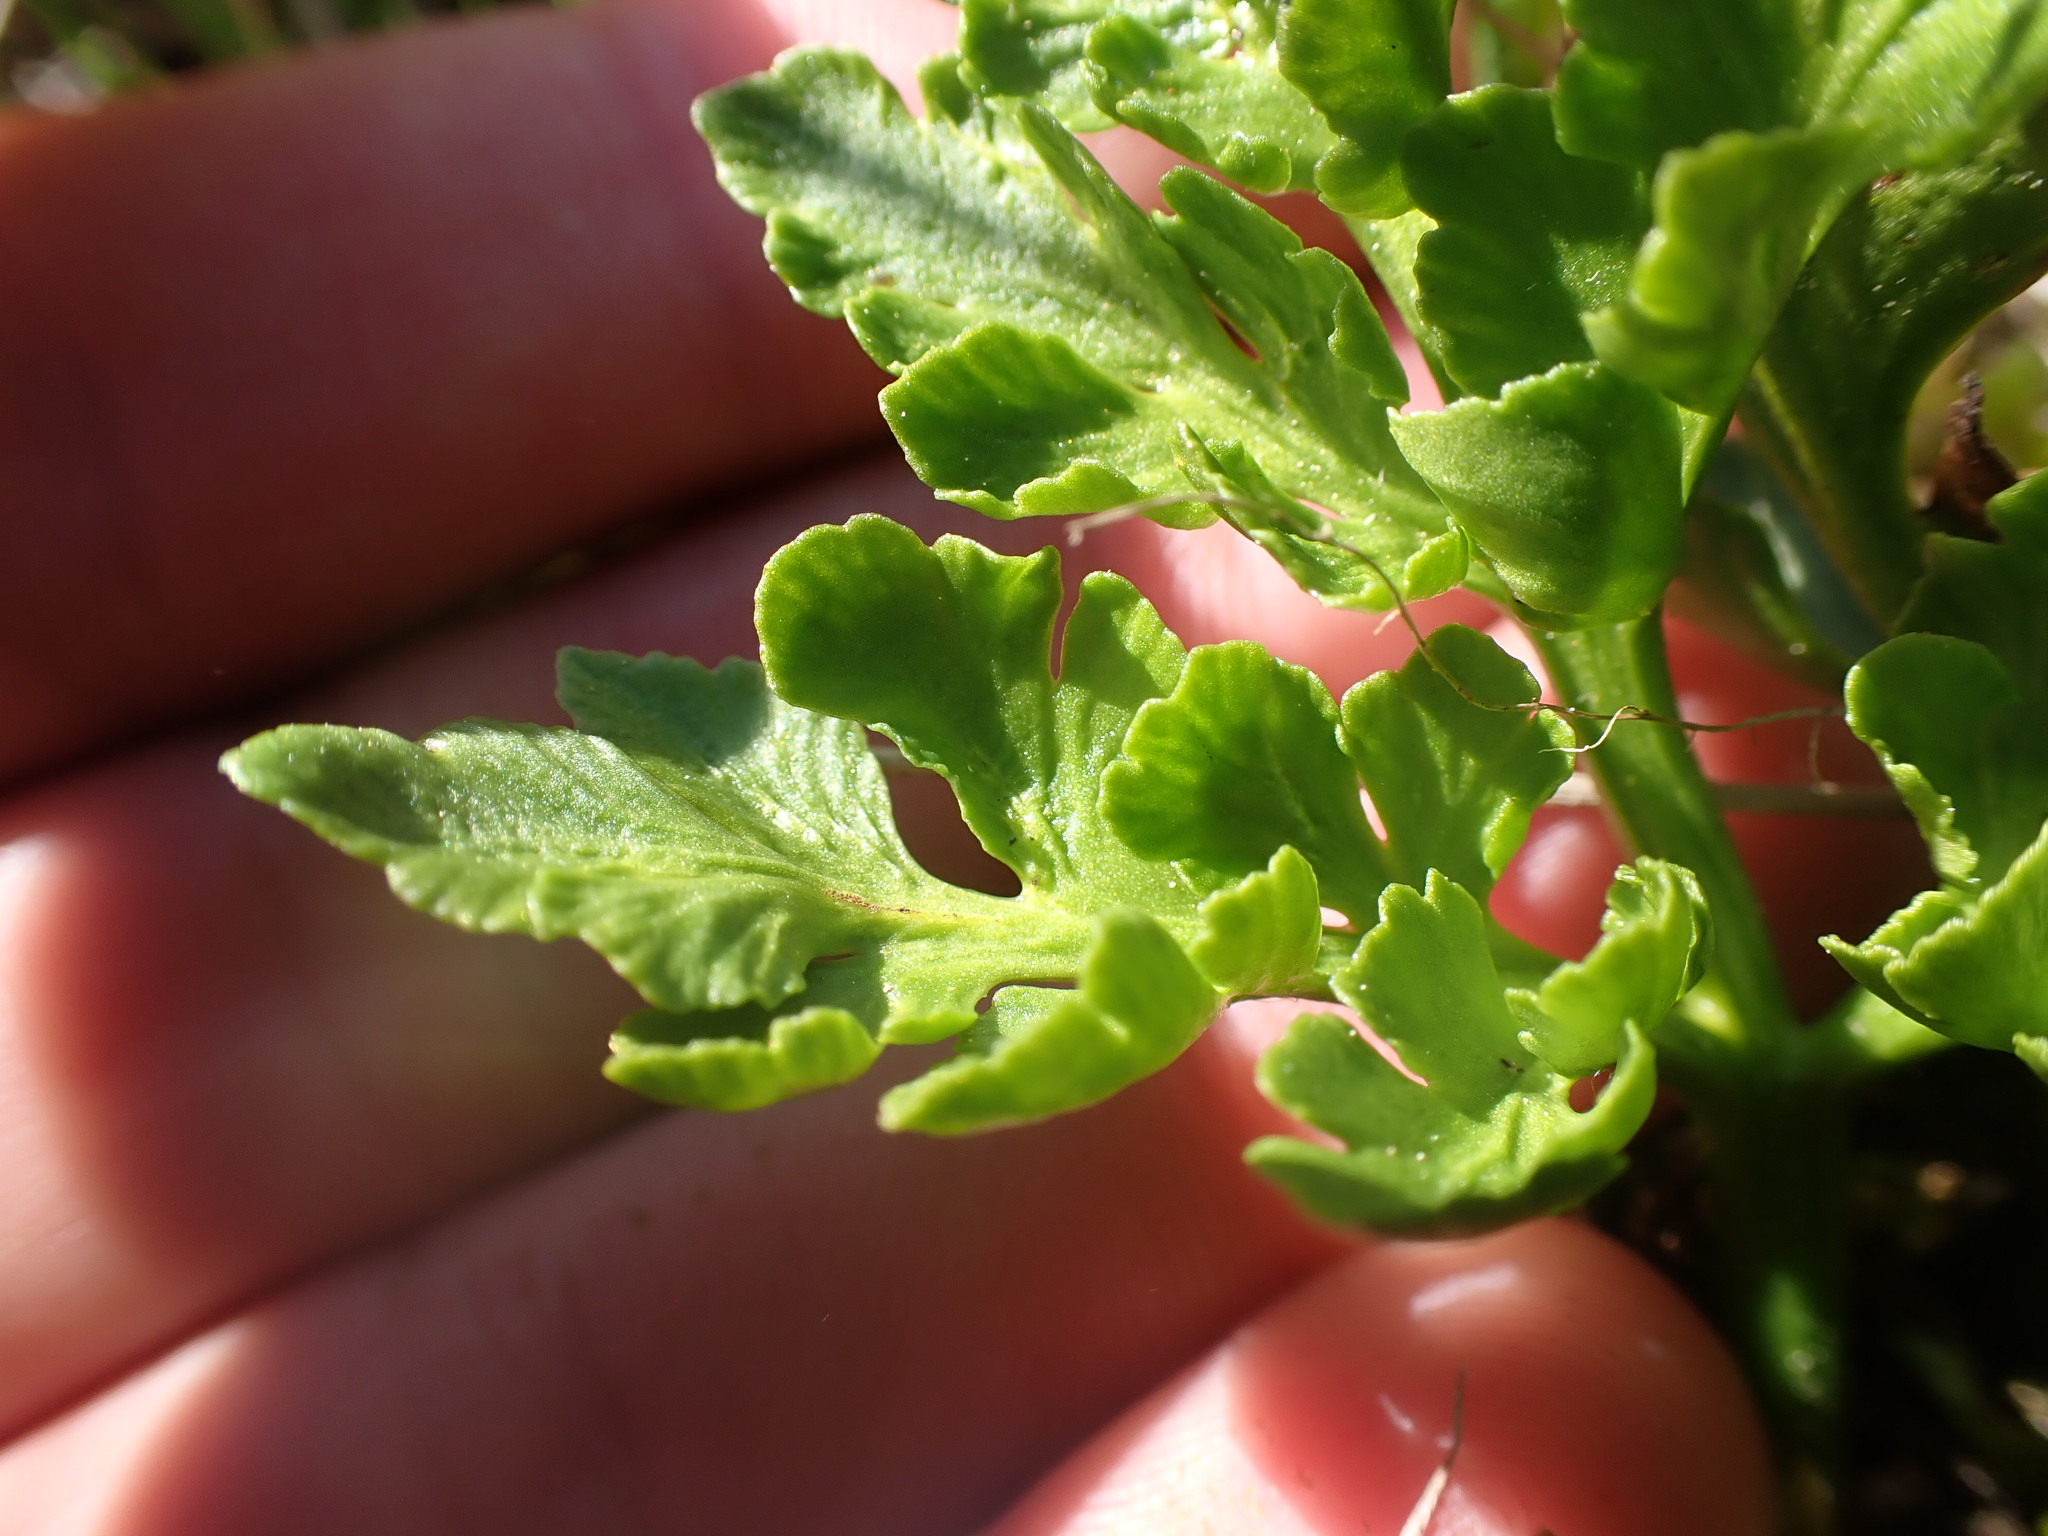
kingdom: Plantae
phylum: Tracheophyta
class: Polypodiopsida
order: Ophioglossales
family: Ophioglossaceae
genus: Sceptridium
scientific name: Sceptridium multifidum
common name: Leathery grape fern
